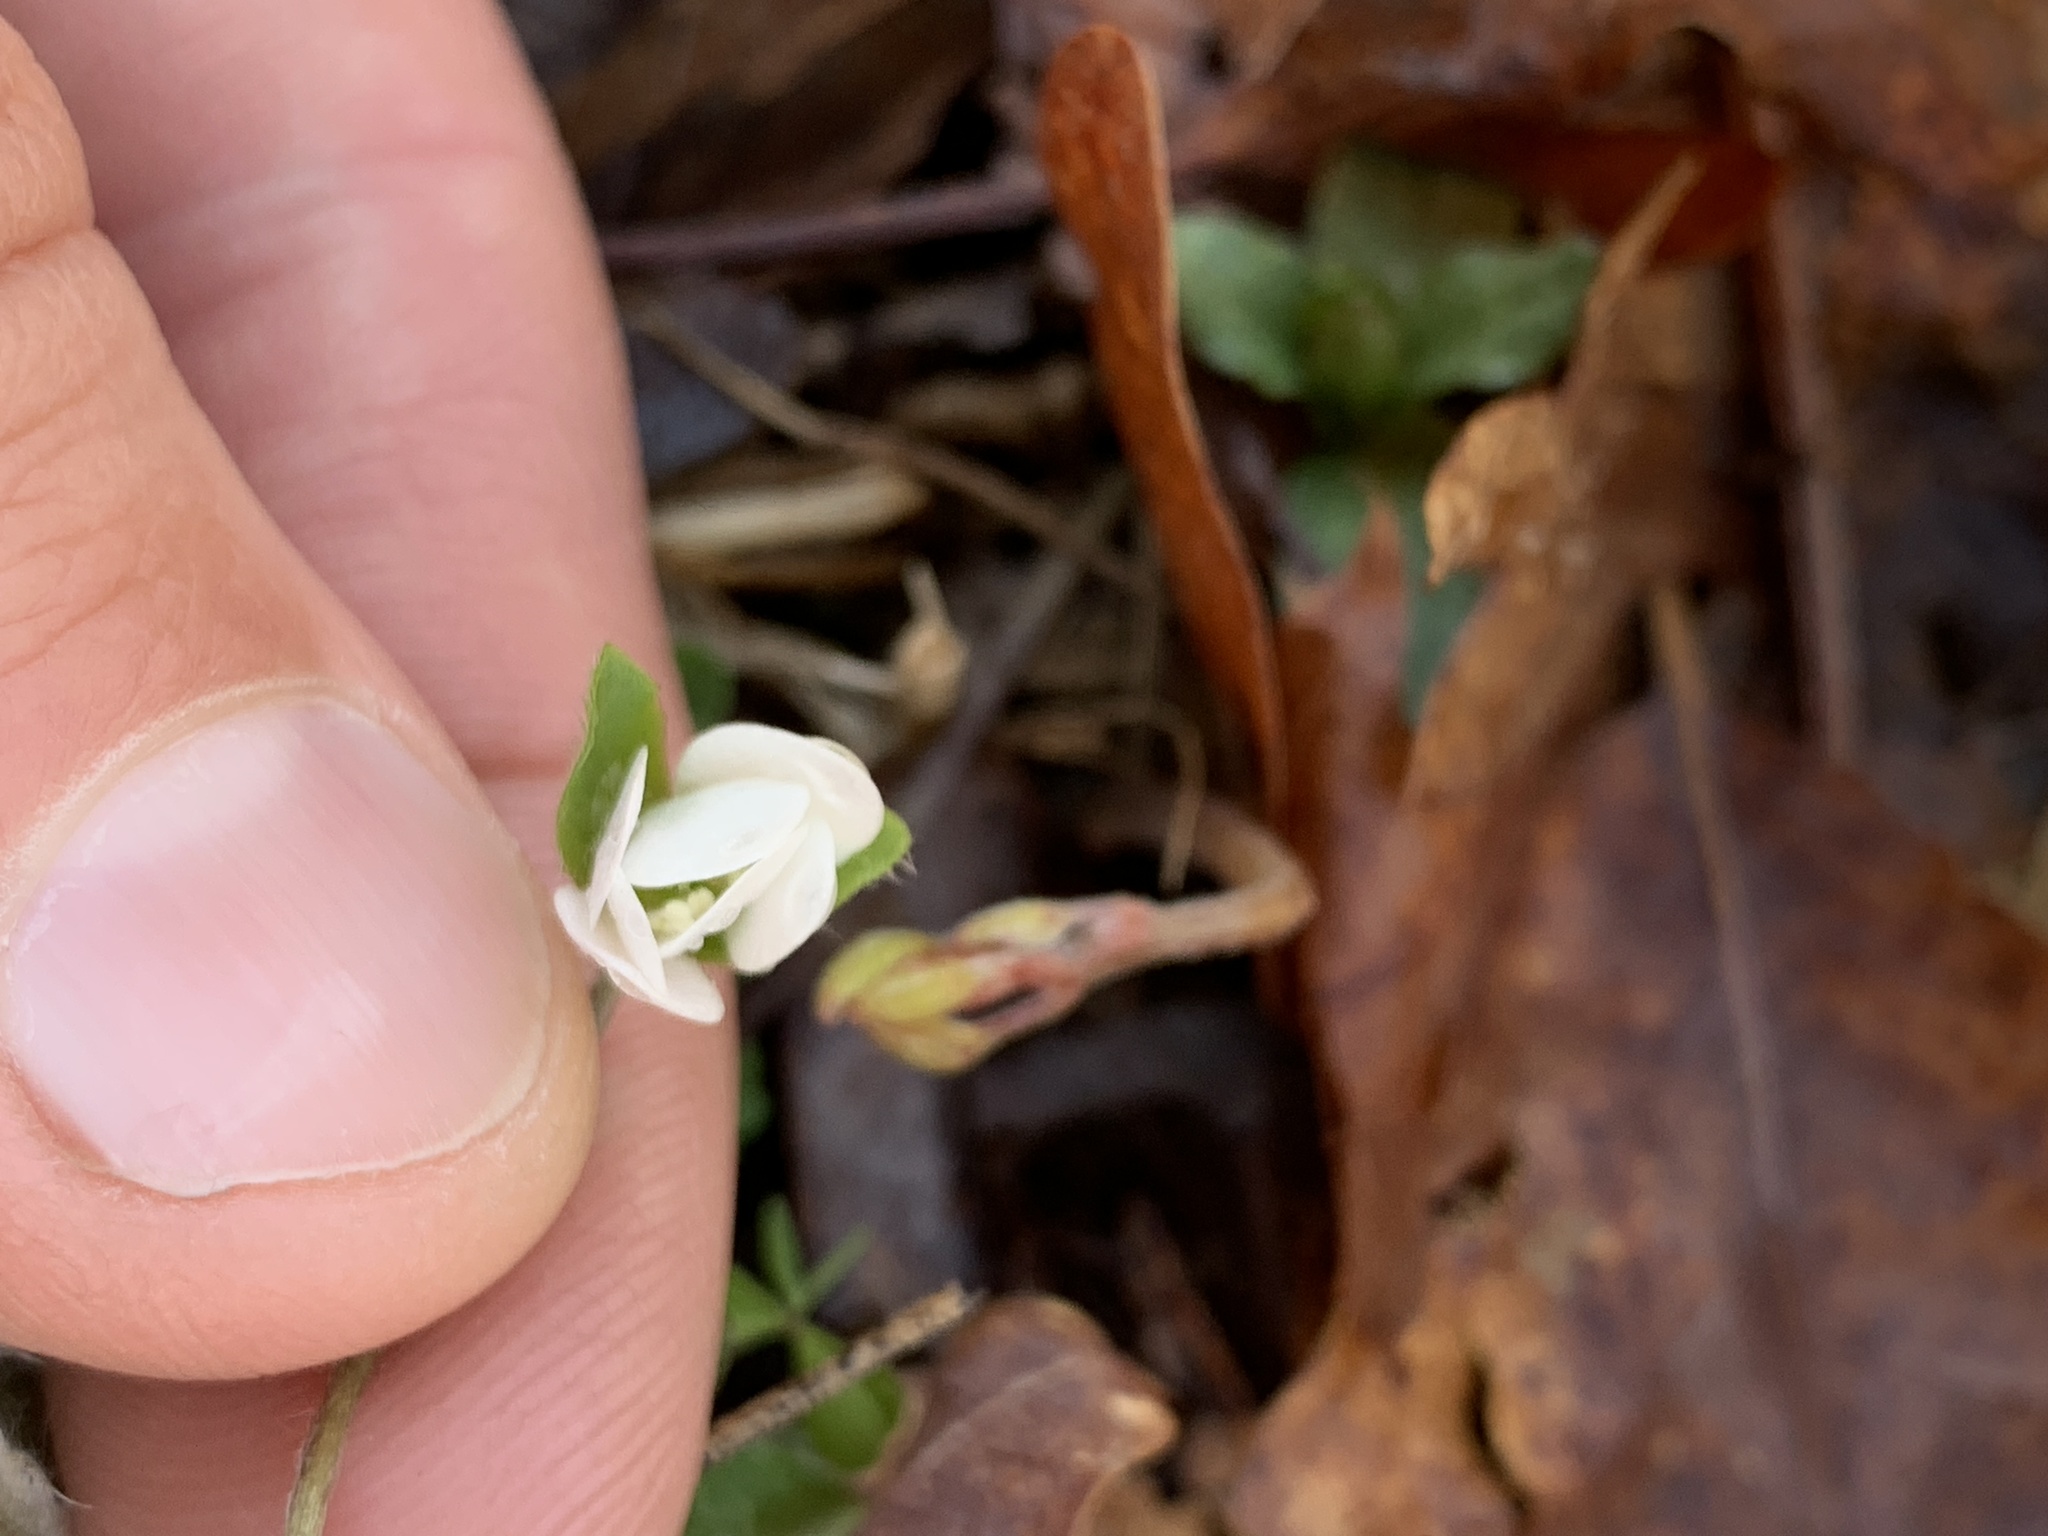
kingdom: Plantae
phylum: Tracheophyta
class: Magnoliopsida
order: Ranunculales
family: Ranunculaceae
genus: Hepatica
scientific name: Hepatica americana
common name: American hepatica
